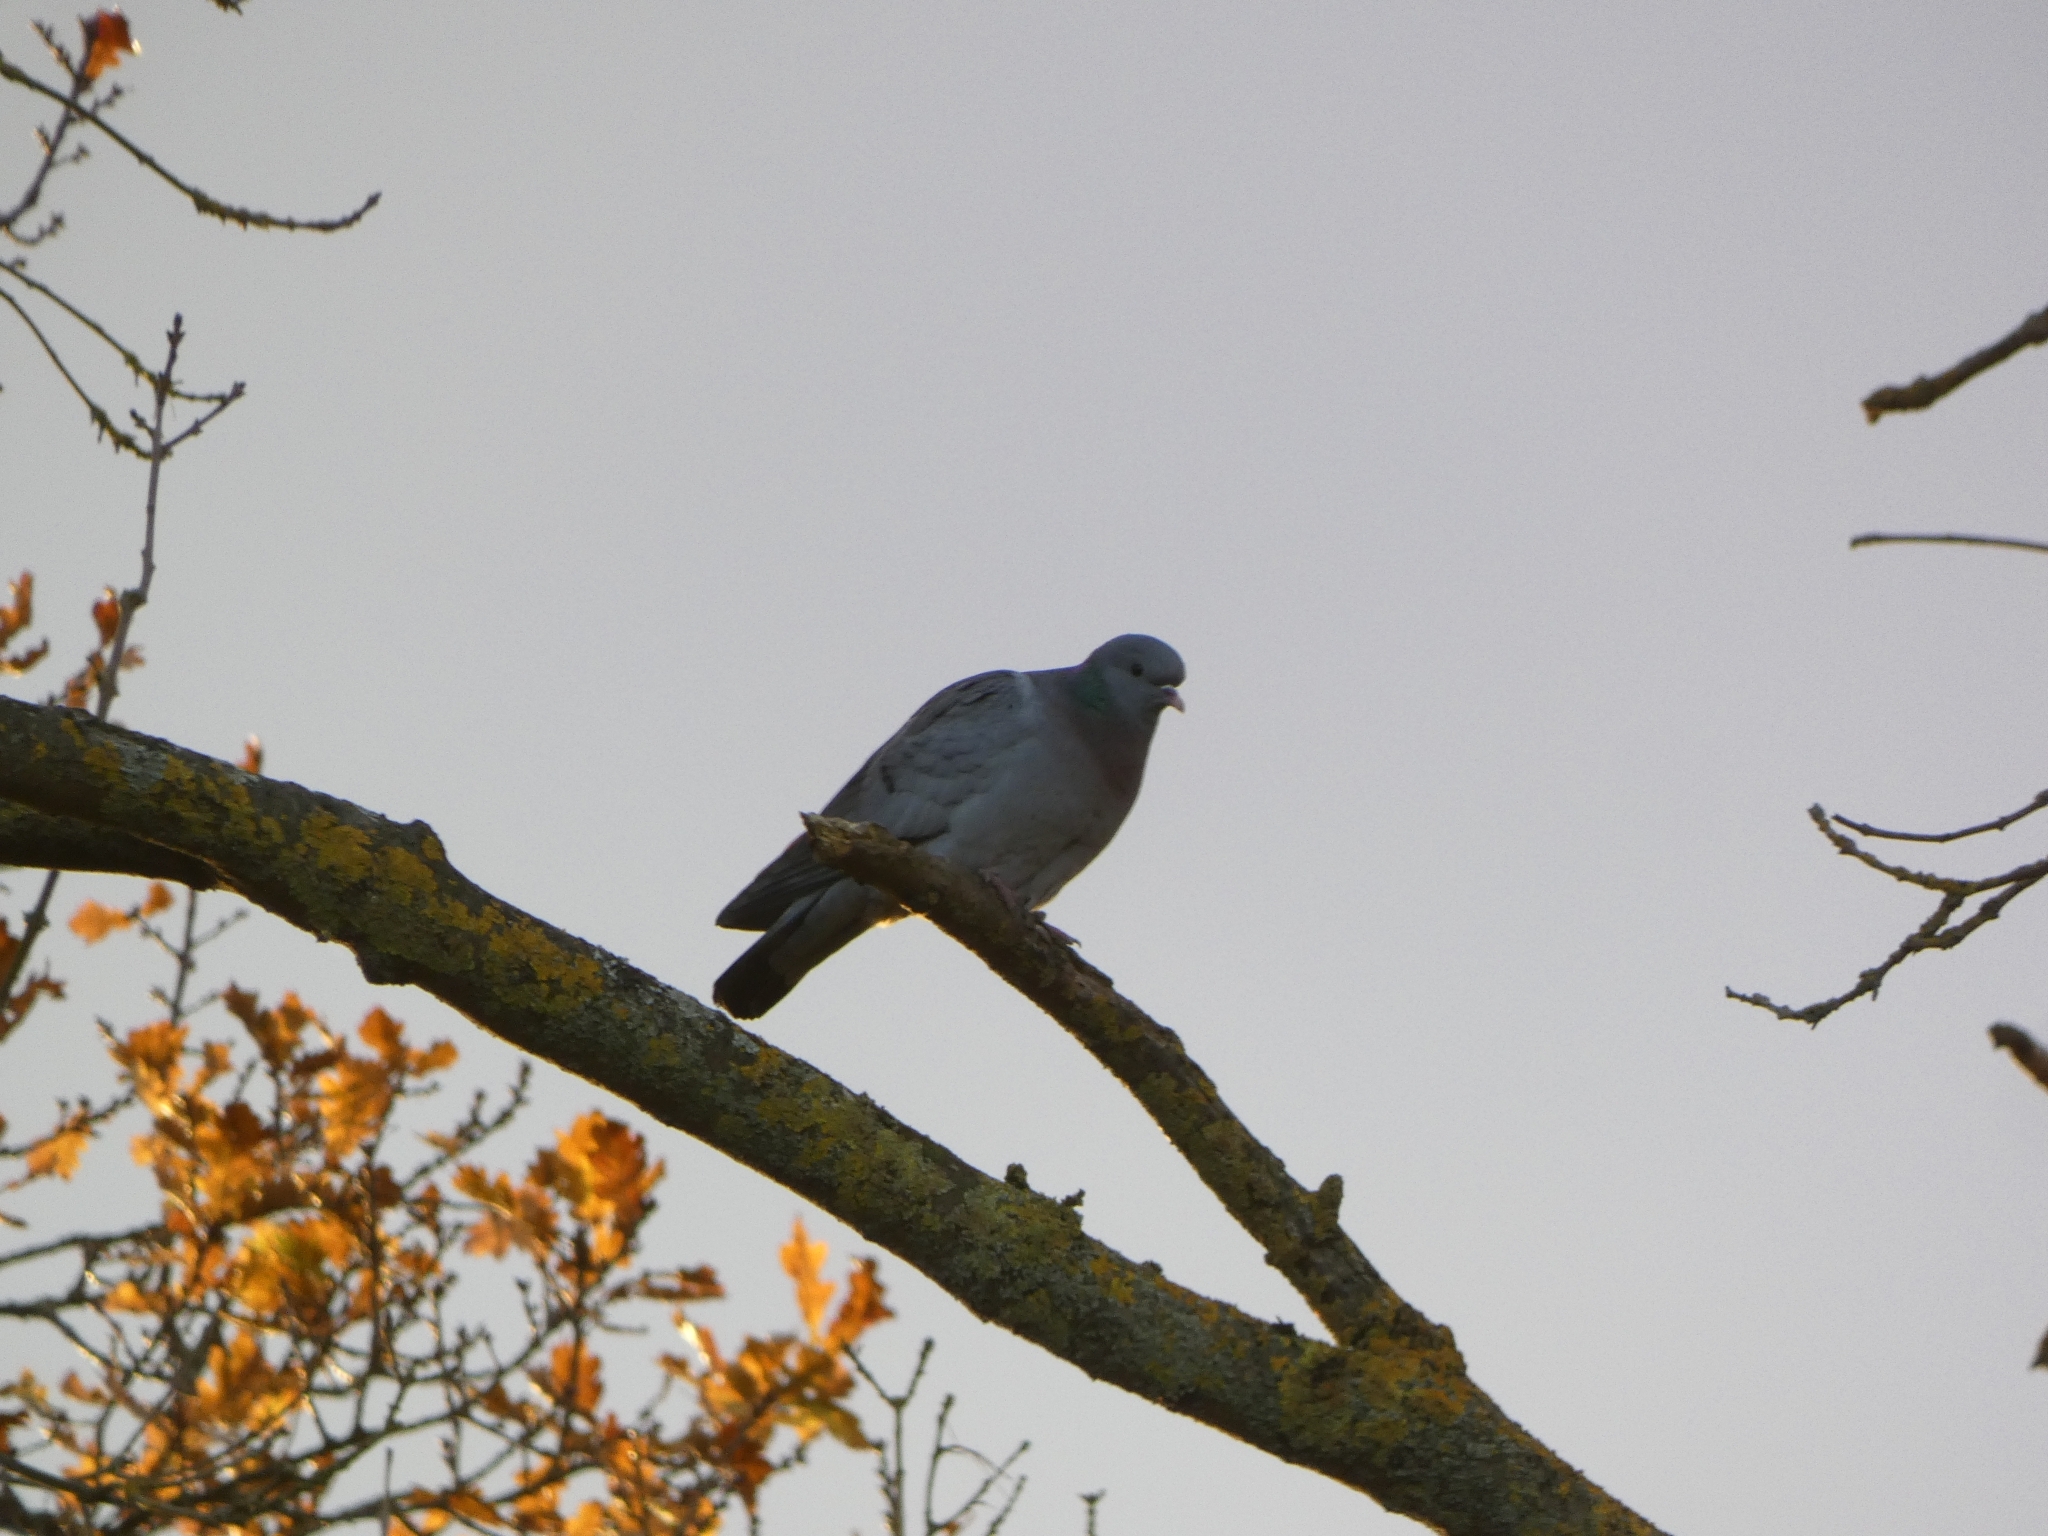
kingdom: Animalia
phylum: Chordata
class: Aves
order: Columbiformes
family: Columbidae
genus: Columba
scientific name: Columba oenas
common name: Stock dove
